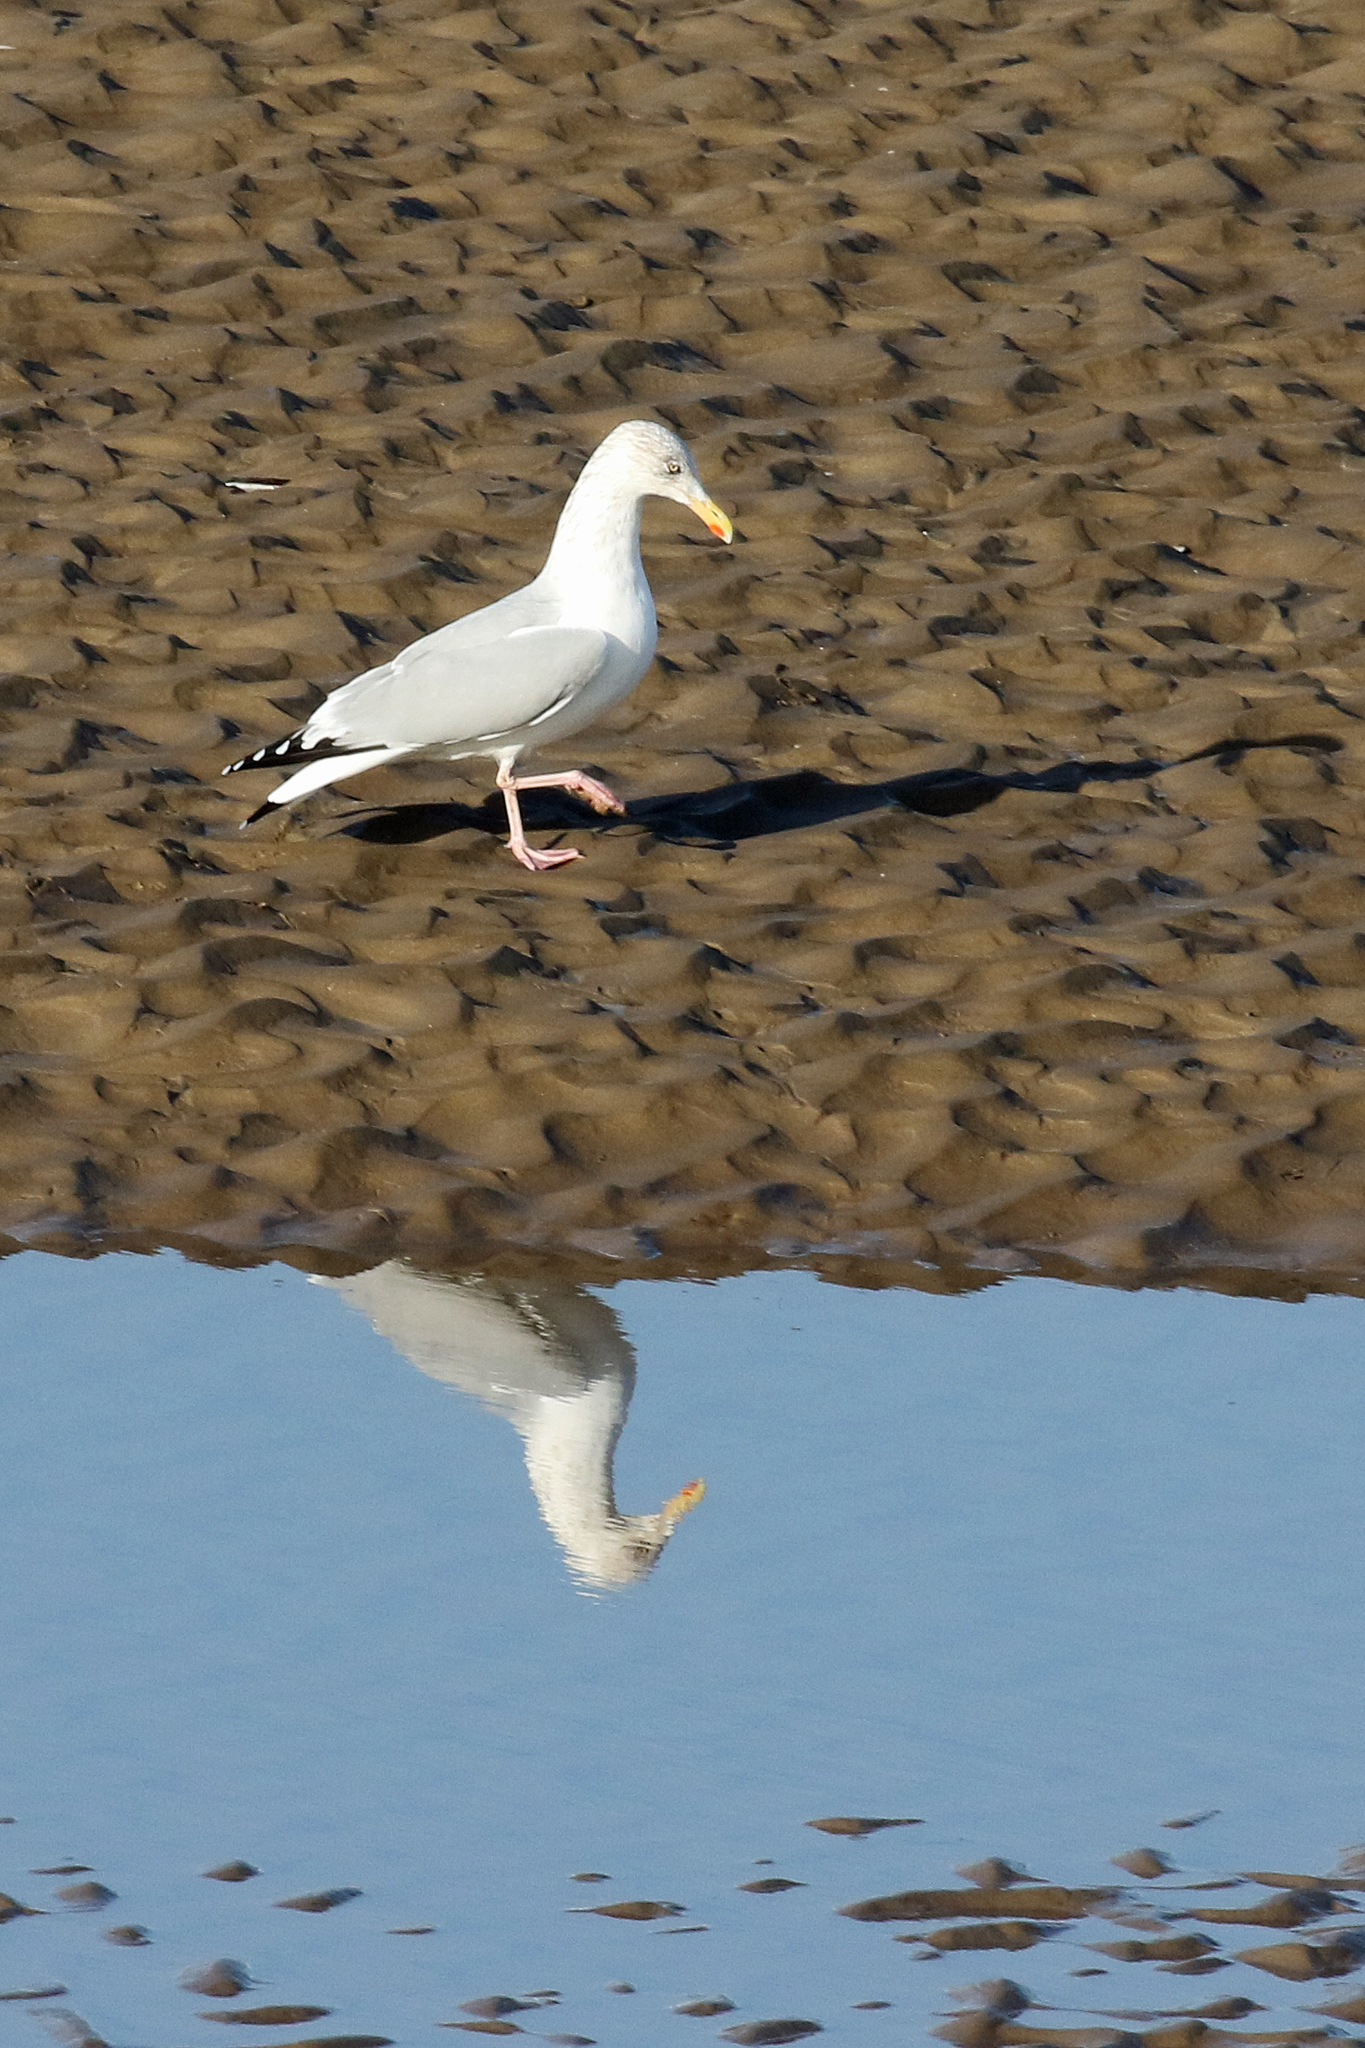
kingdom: Animalia
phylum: Chordata
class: Aves
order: Charadriiformes
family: Laridae
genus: Larus
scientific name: Larus argentatus
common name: Herring gull
